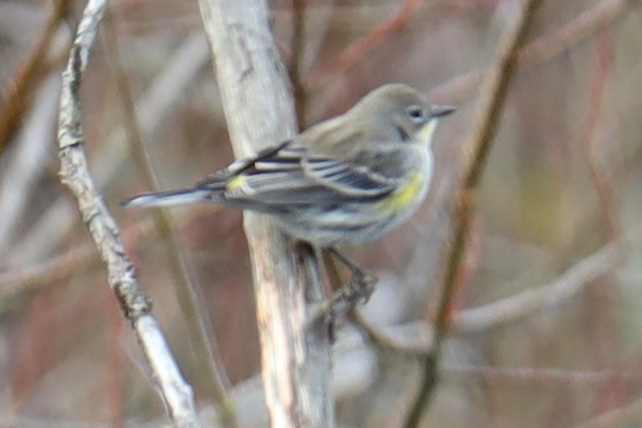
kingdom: Animalia
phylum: Chordata
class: Aves
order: Passeriformes
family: Parulidae
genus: Setophaga
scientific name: Setophaga auduboni
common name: Audubon's warbler
